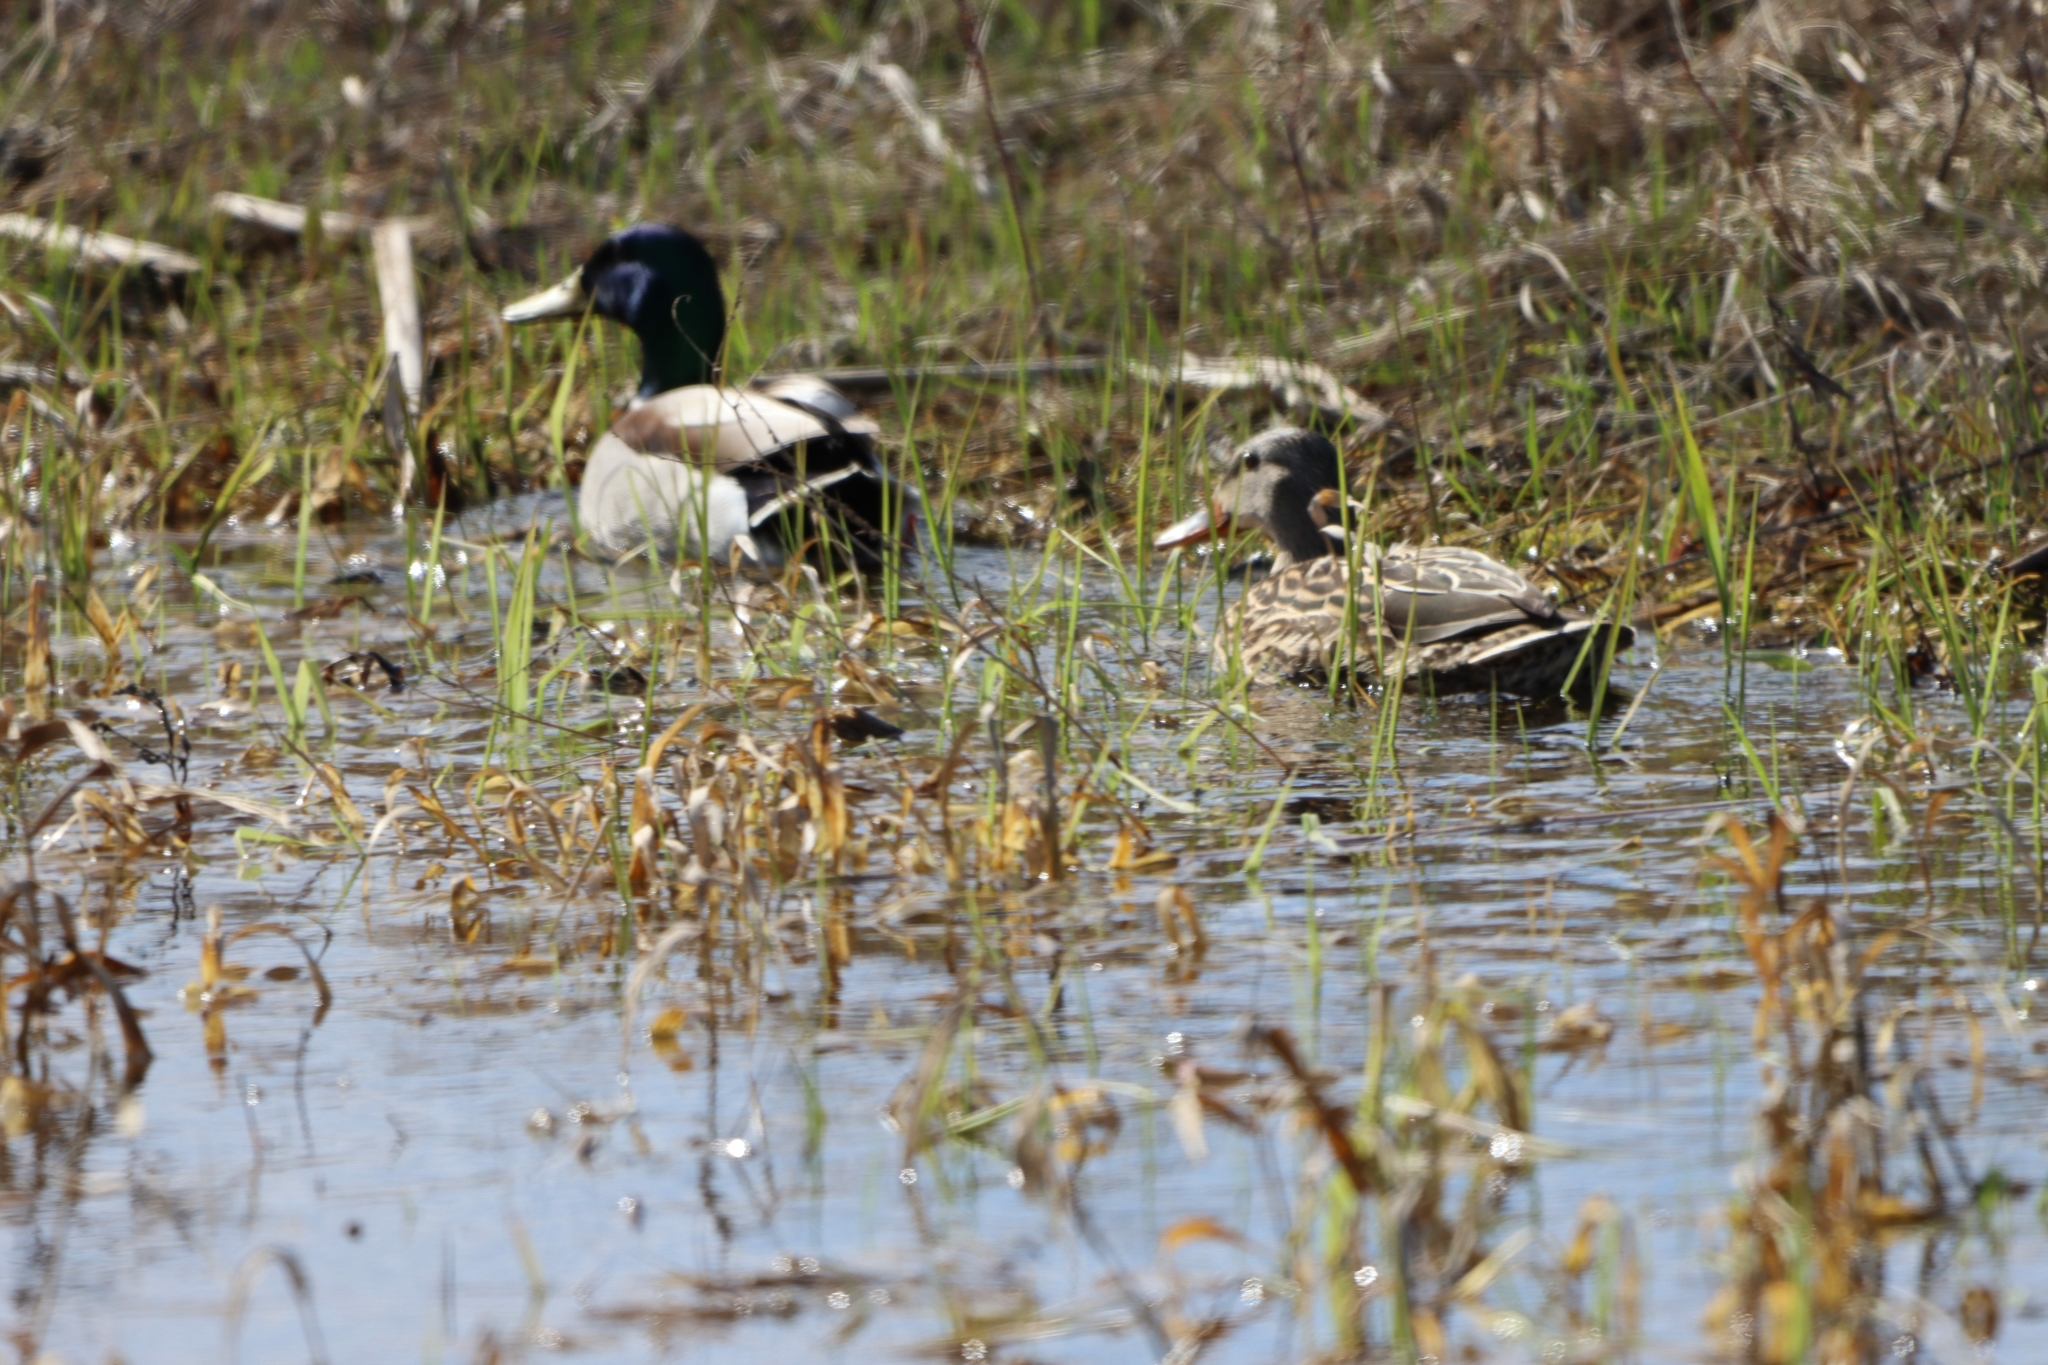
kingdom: Animalia
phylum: Chordata
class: Aves
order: Anseriformes
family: Anatidae
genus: Anas
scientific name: Anas platyrhynchos
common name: Mallard
